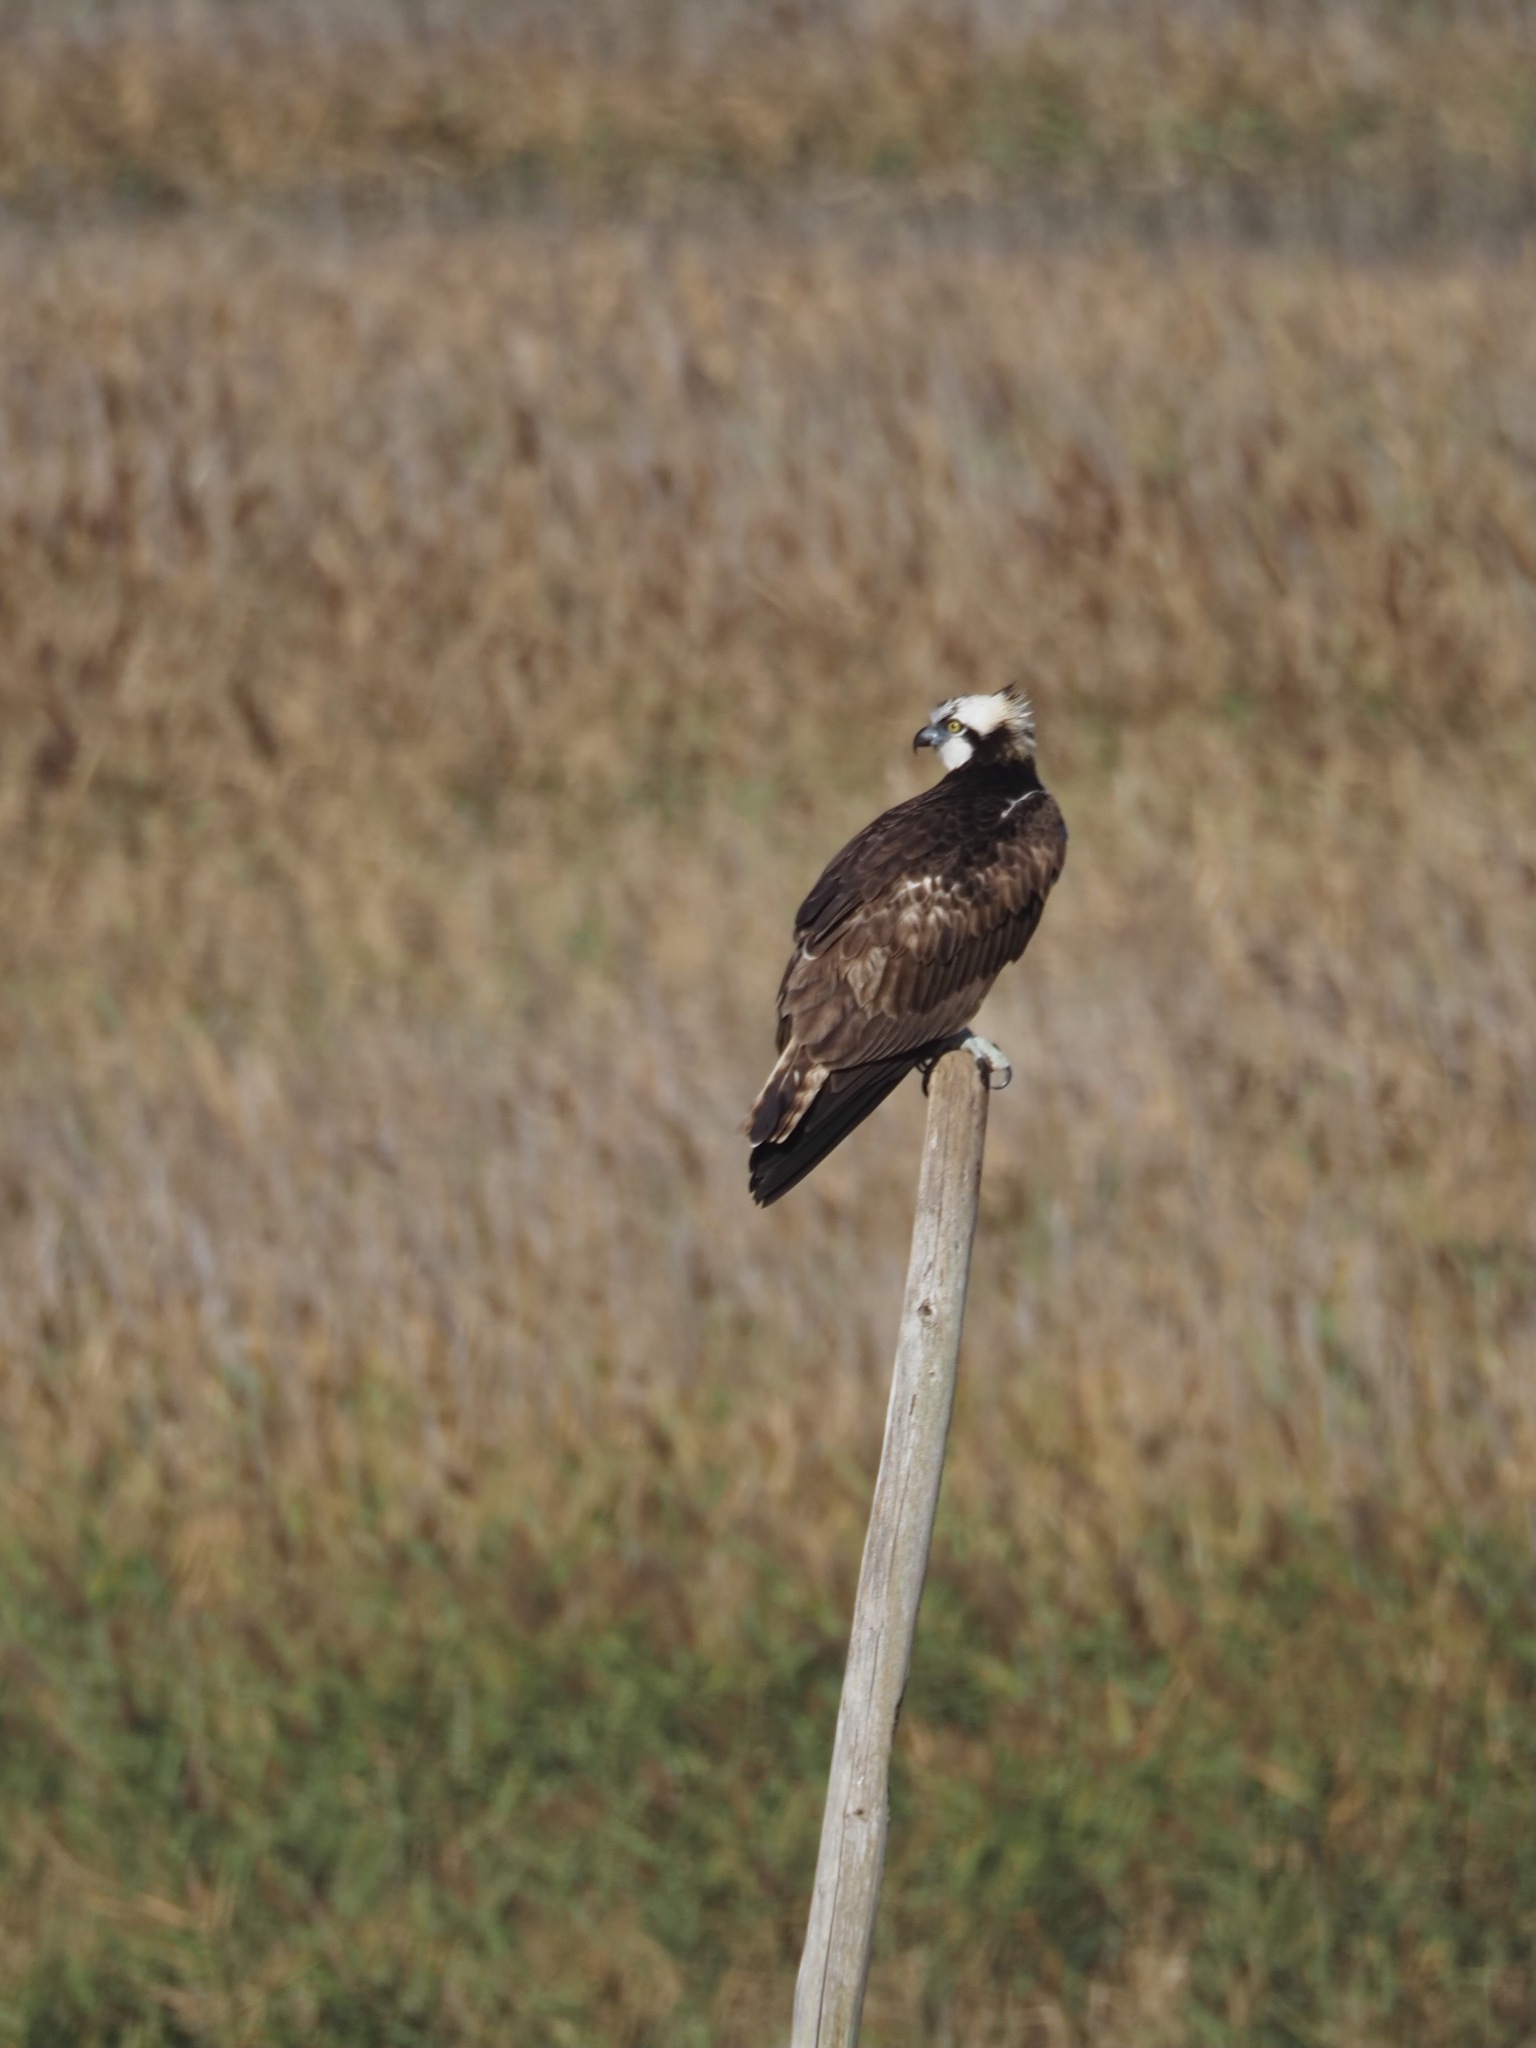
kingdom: Animalia
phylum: Chordata
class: Aves
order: Accipitriformes
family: Pandionidae
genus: Pandion
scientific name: Pandion haliaetus
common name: Osprey
